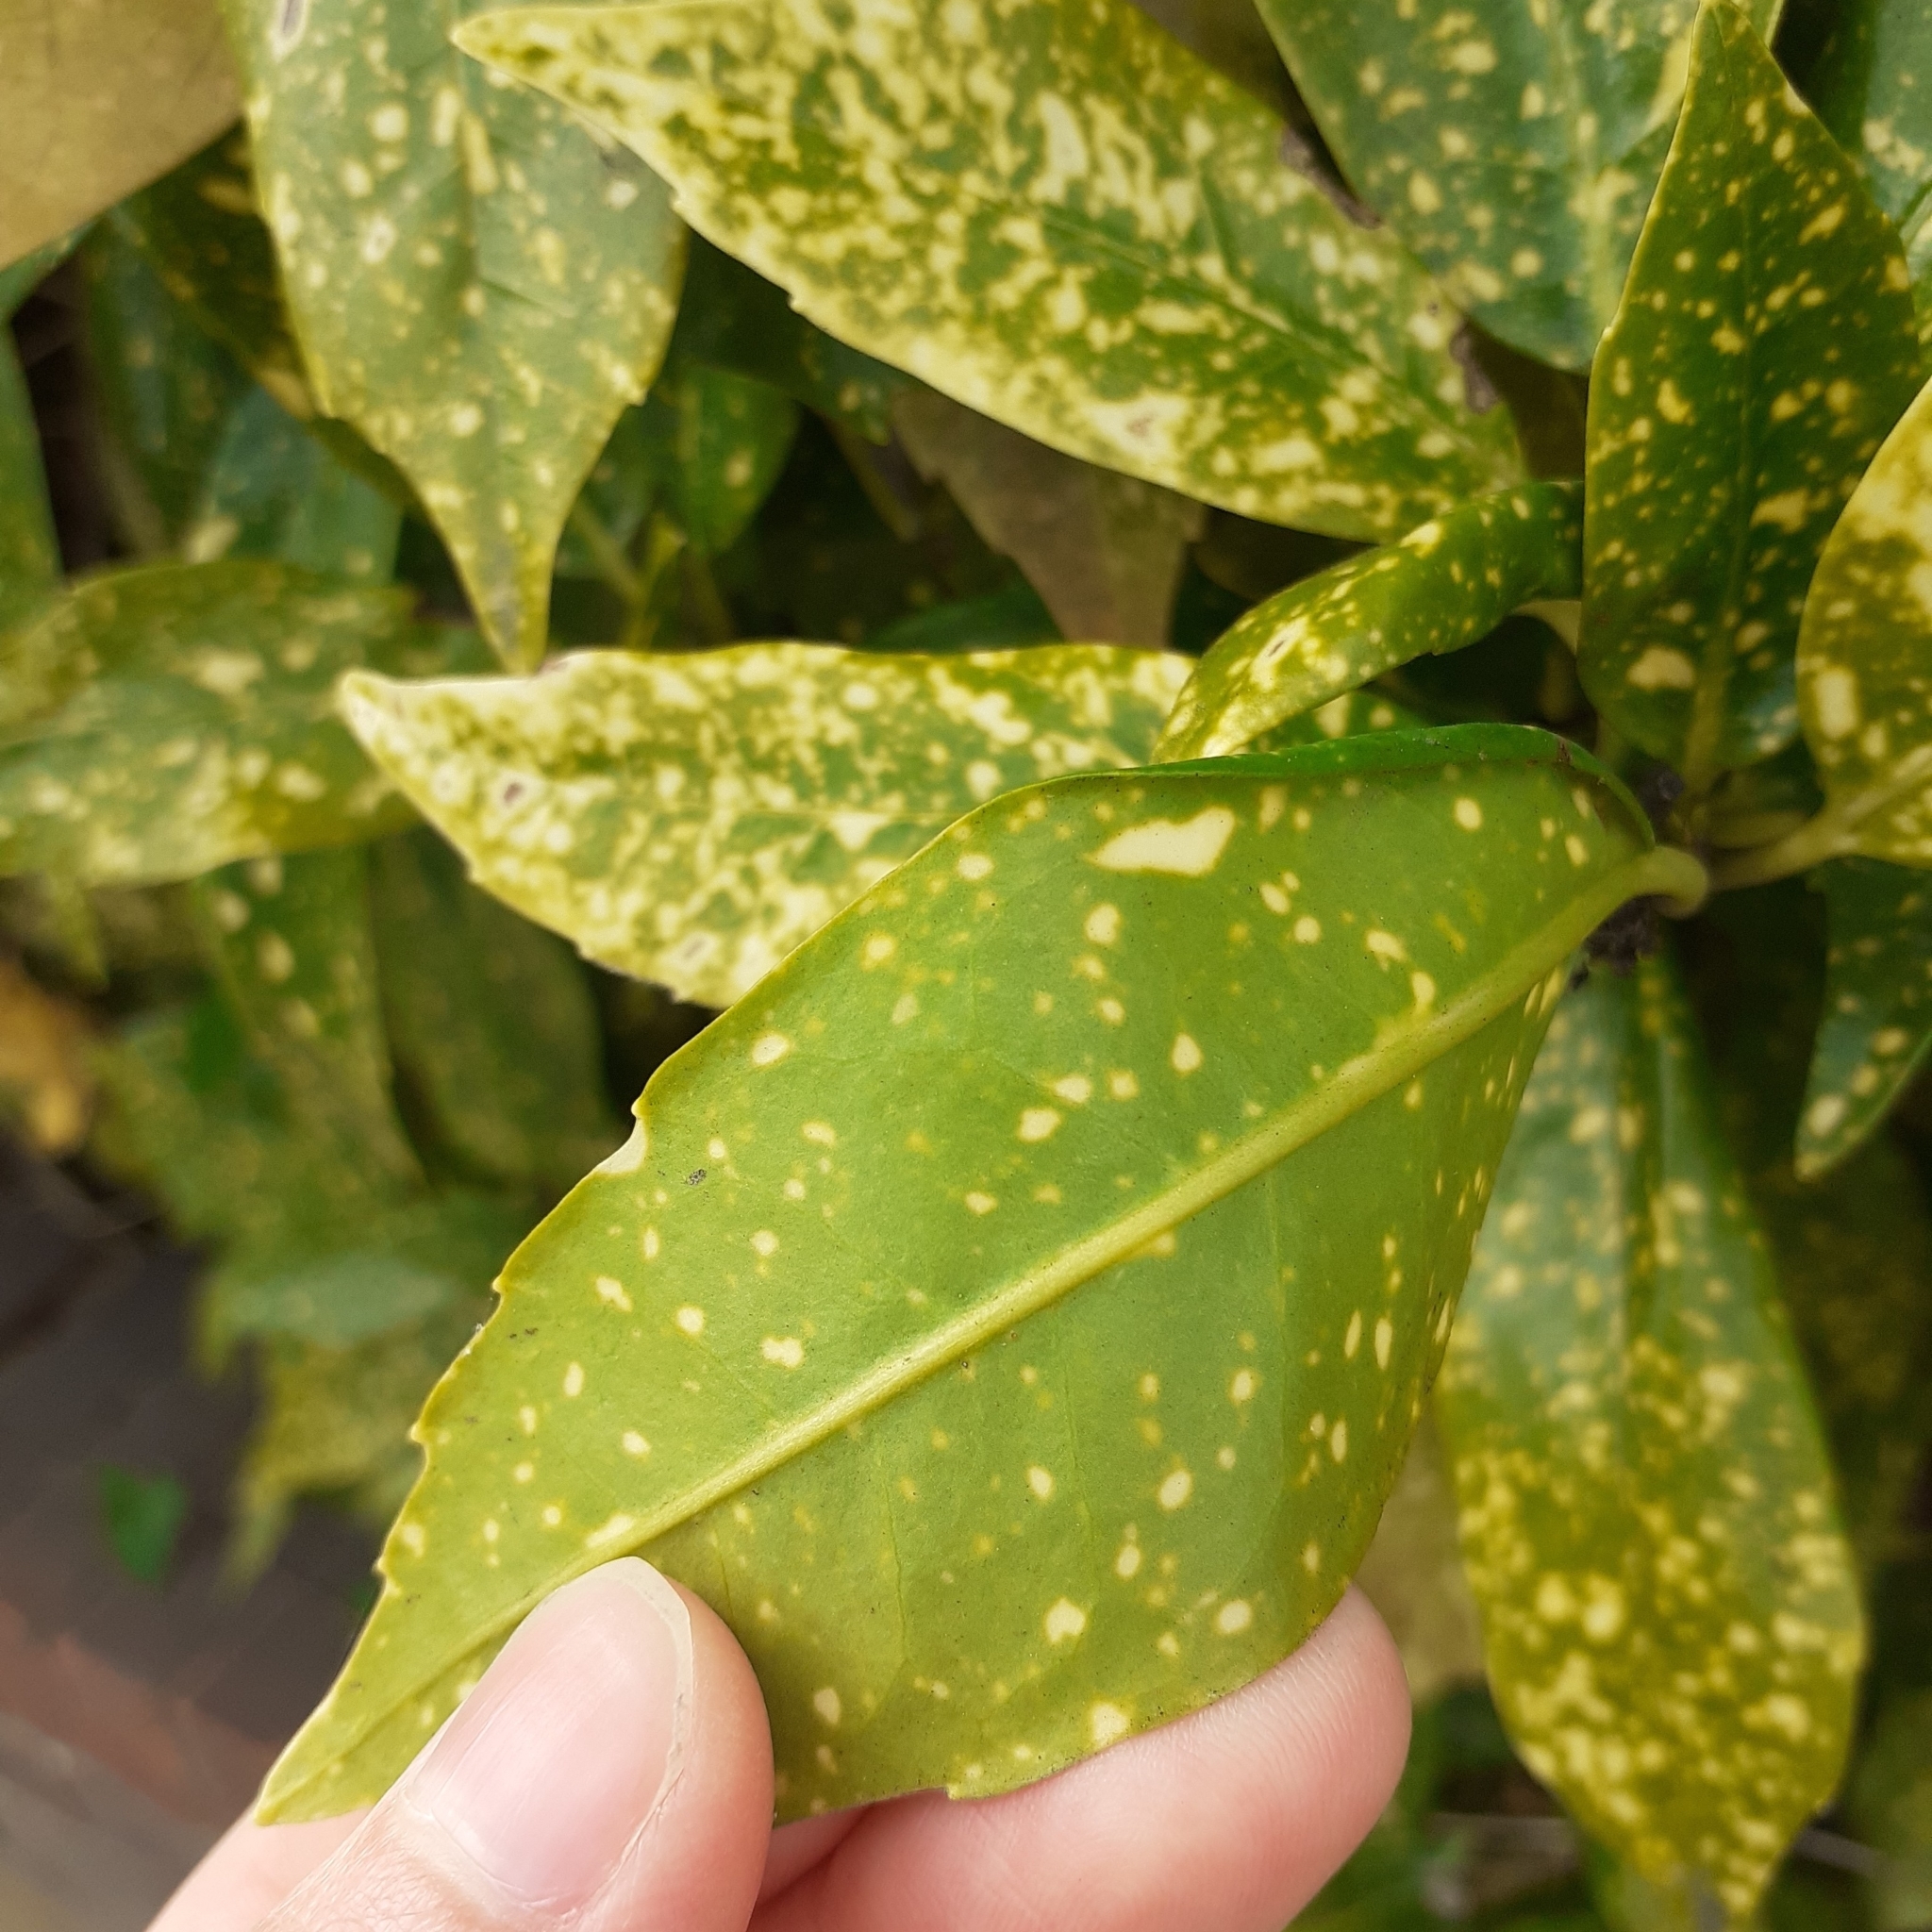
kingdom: Plantae
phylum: Tracheophyta
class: Magnoliopsida
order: Garryales
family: Garryaceae
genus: Aucuba
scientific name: Aucuba japonica
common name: Spotted-laurel
